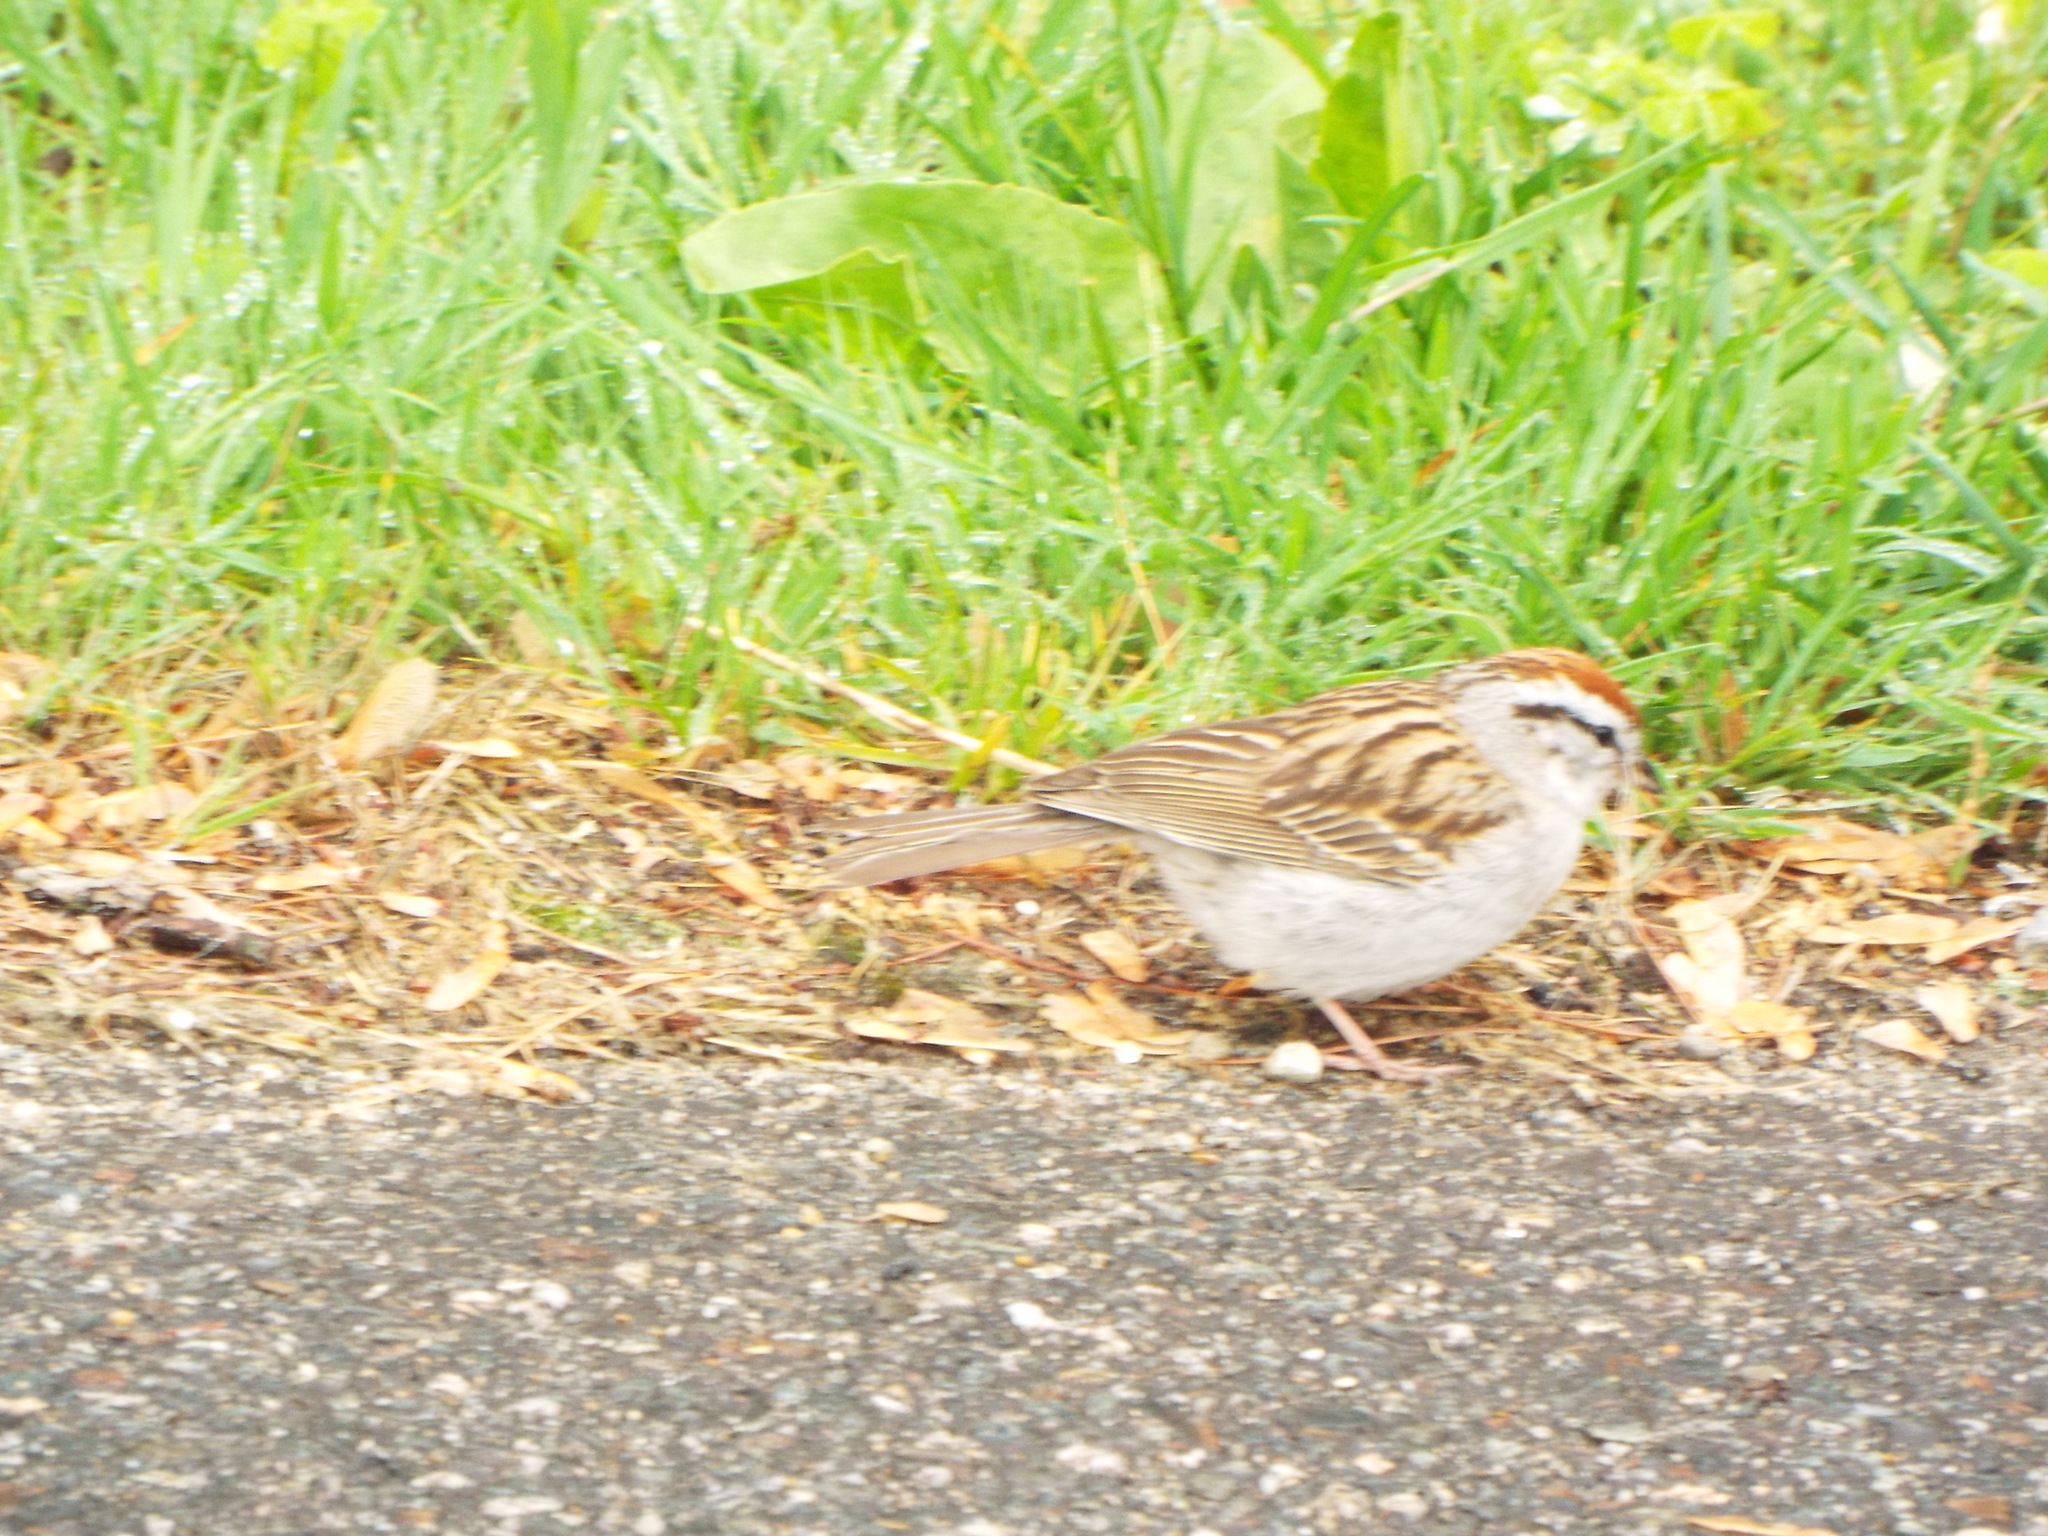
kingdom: Animalia
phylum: Chordata
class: Aves
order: Passeriformes
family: Passerellidae
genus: Spizella
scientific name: Spizella passerina
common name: Chipping sparrow
